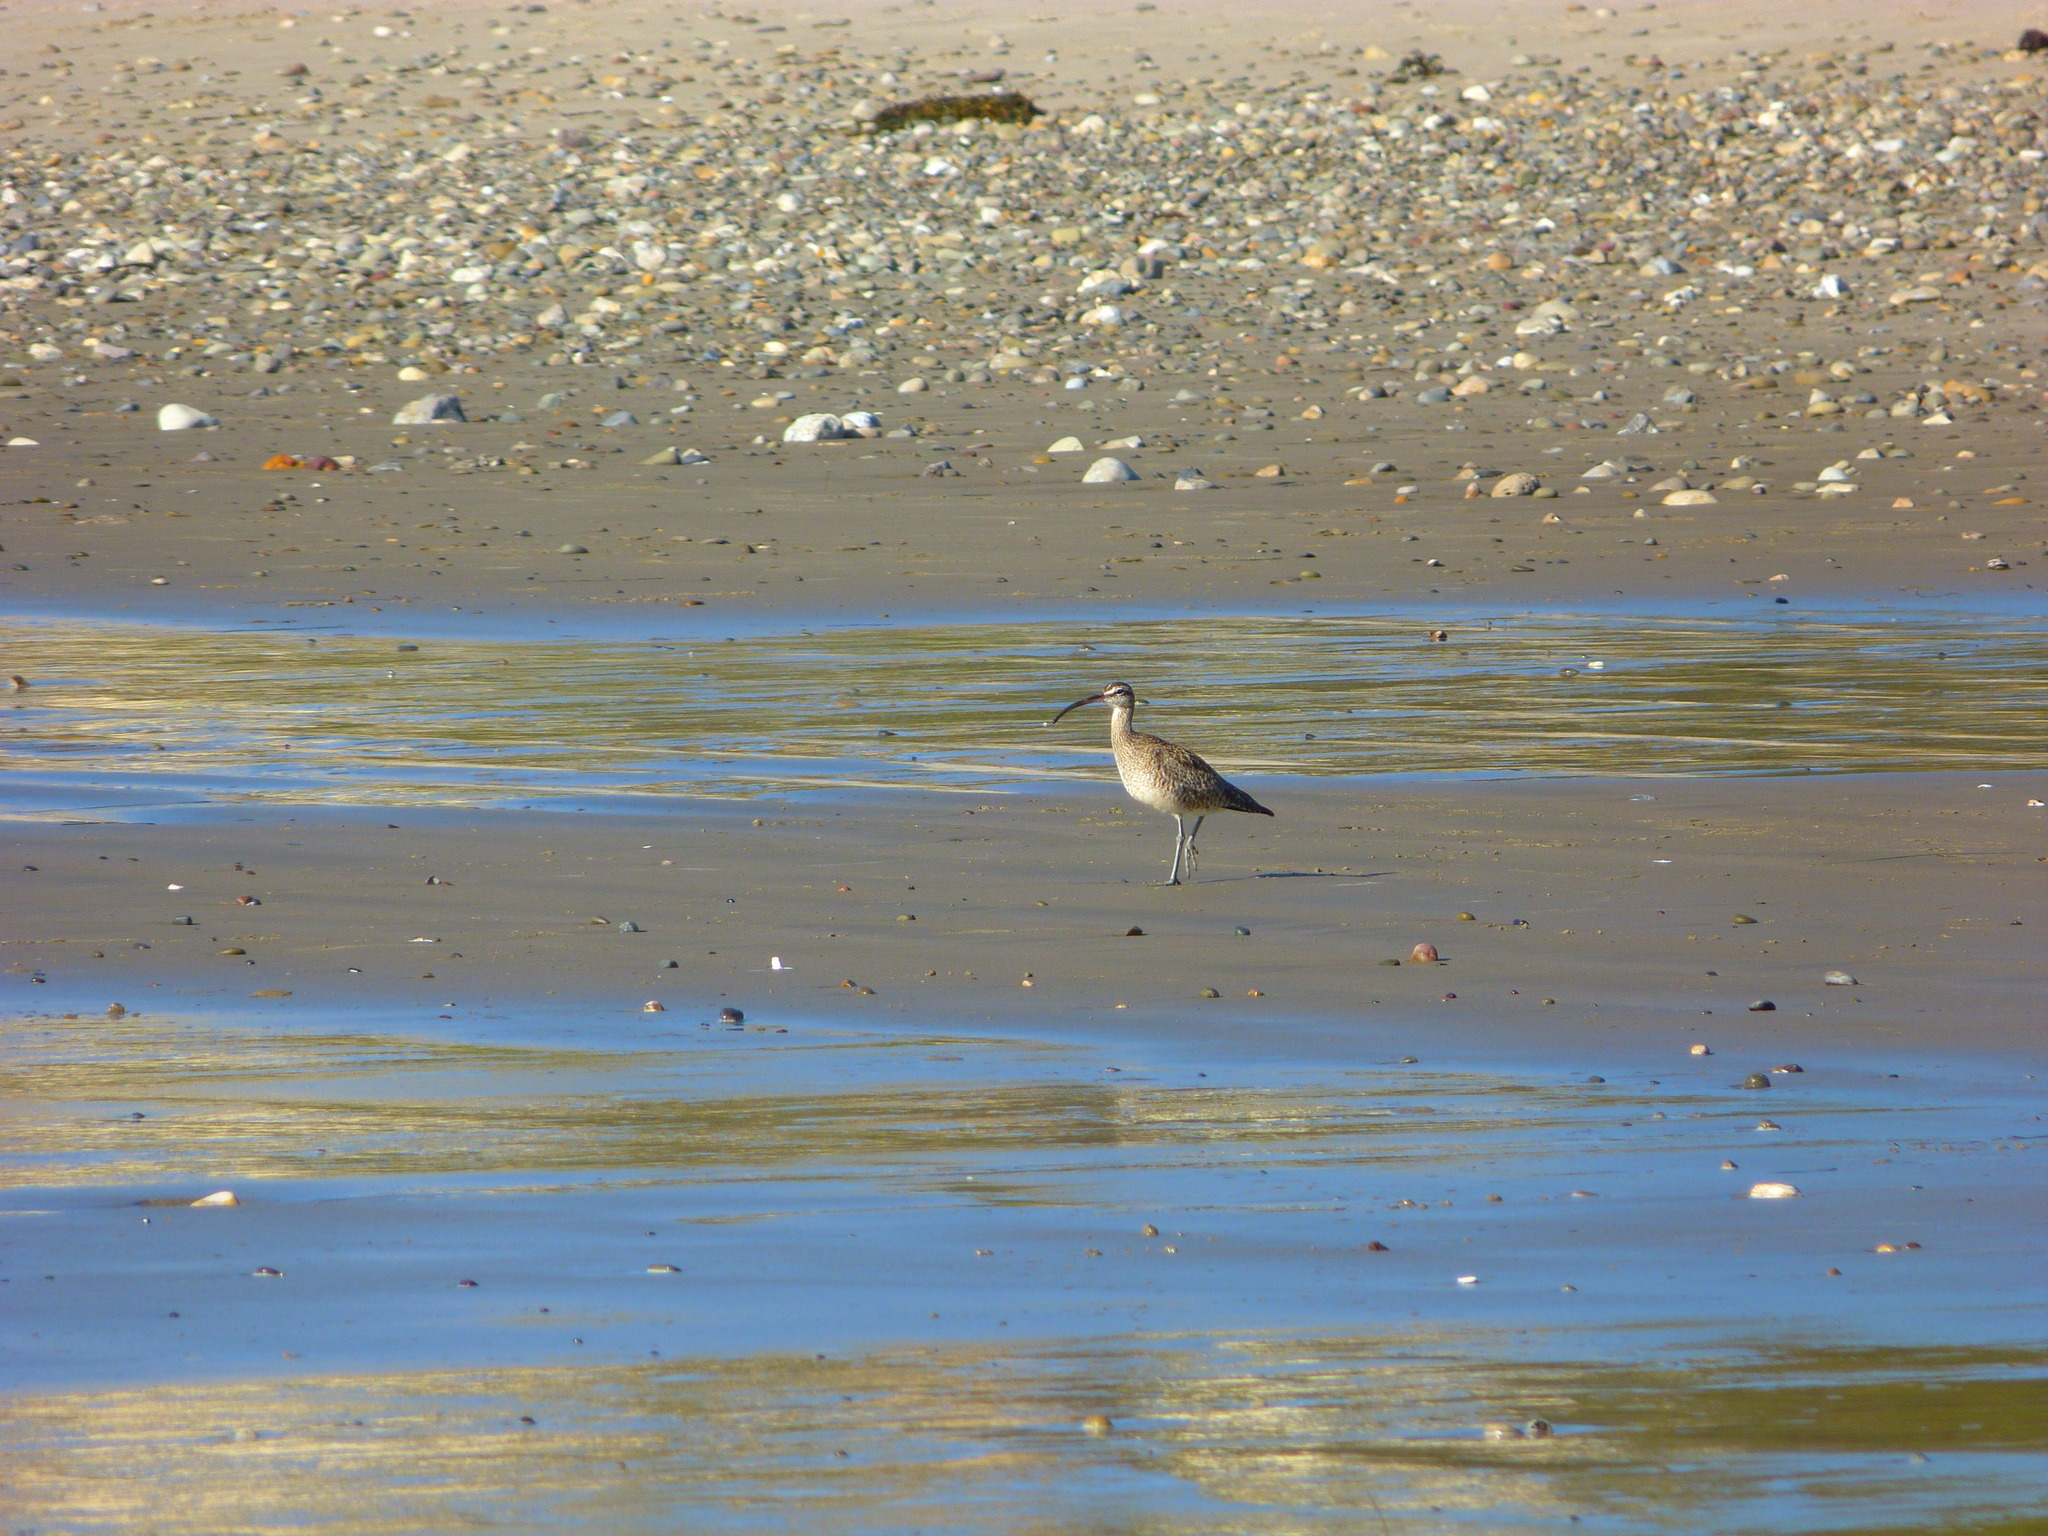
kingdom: Animalia
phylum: Chordata
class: Aves
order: Charadriiformes
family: Scolopacidae
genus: Numenius
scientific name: Numenius phaeopus
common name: Whimbrel
